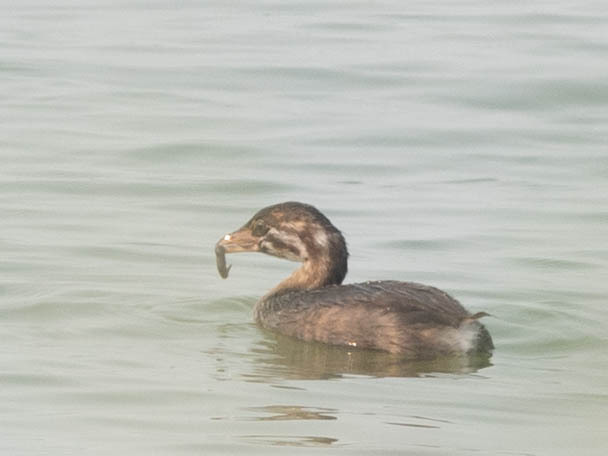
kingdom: Animalia
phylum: Chordata
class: Aves
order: Podicipediformes
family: Podicipedidae
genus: Podilymbus
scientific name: Podilymbus podiceps
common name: Pied-billed grebe
